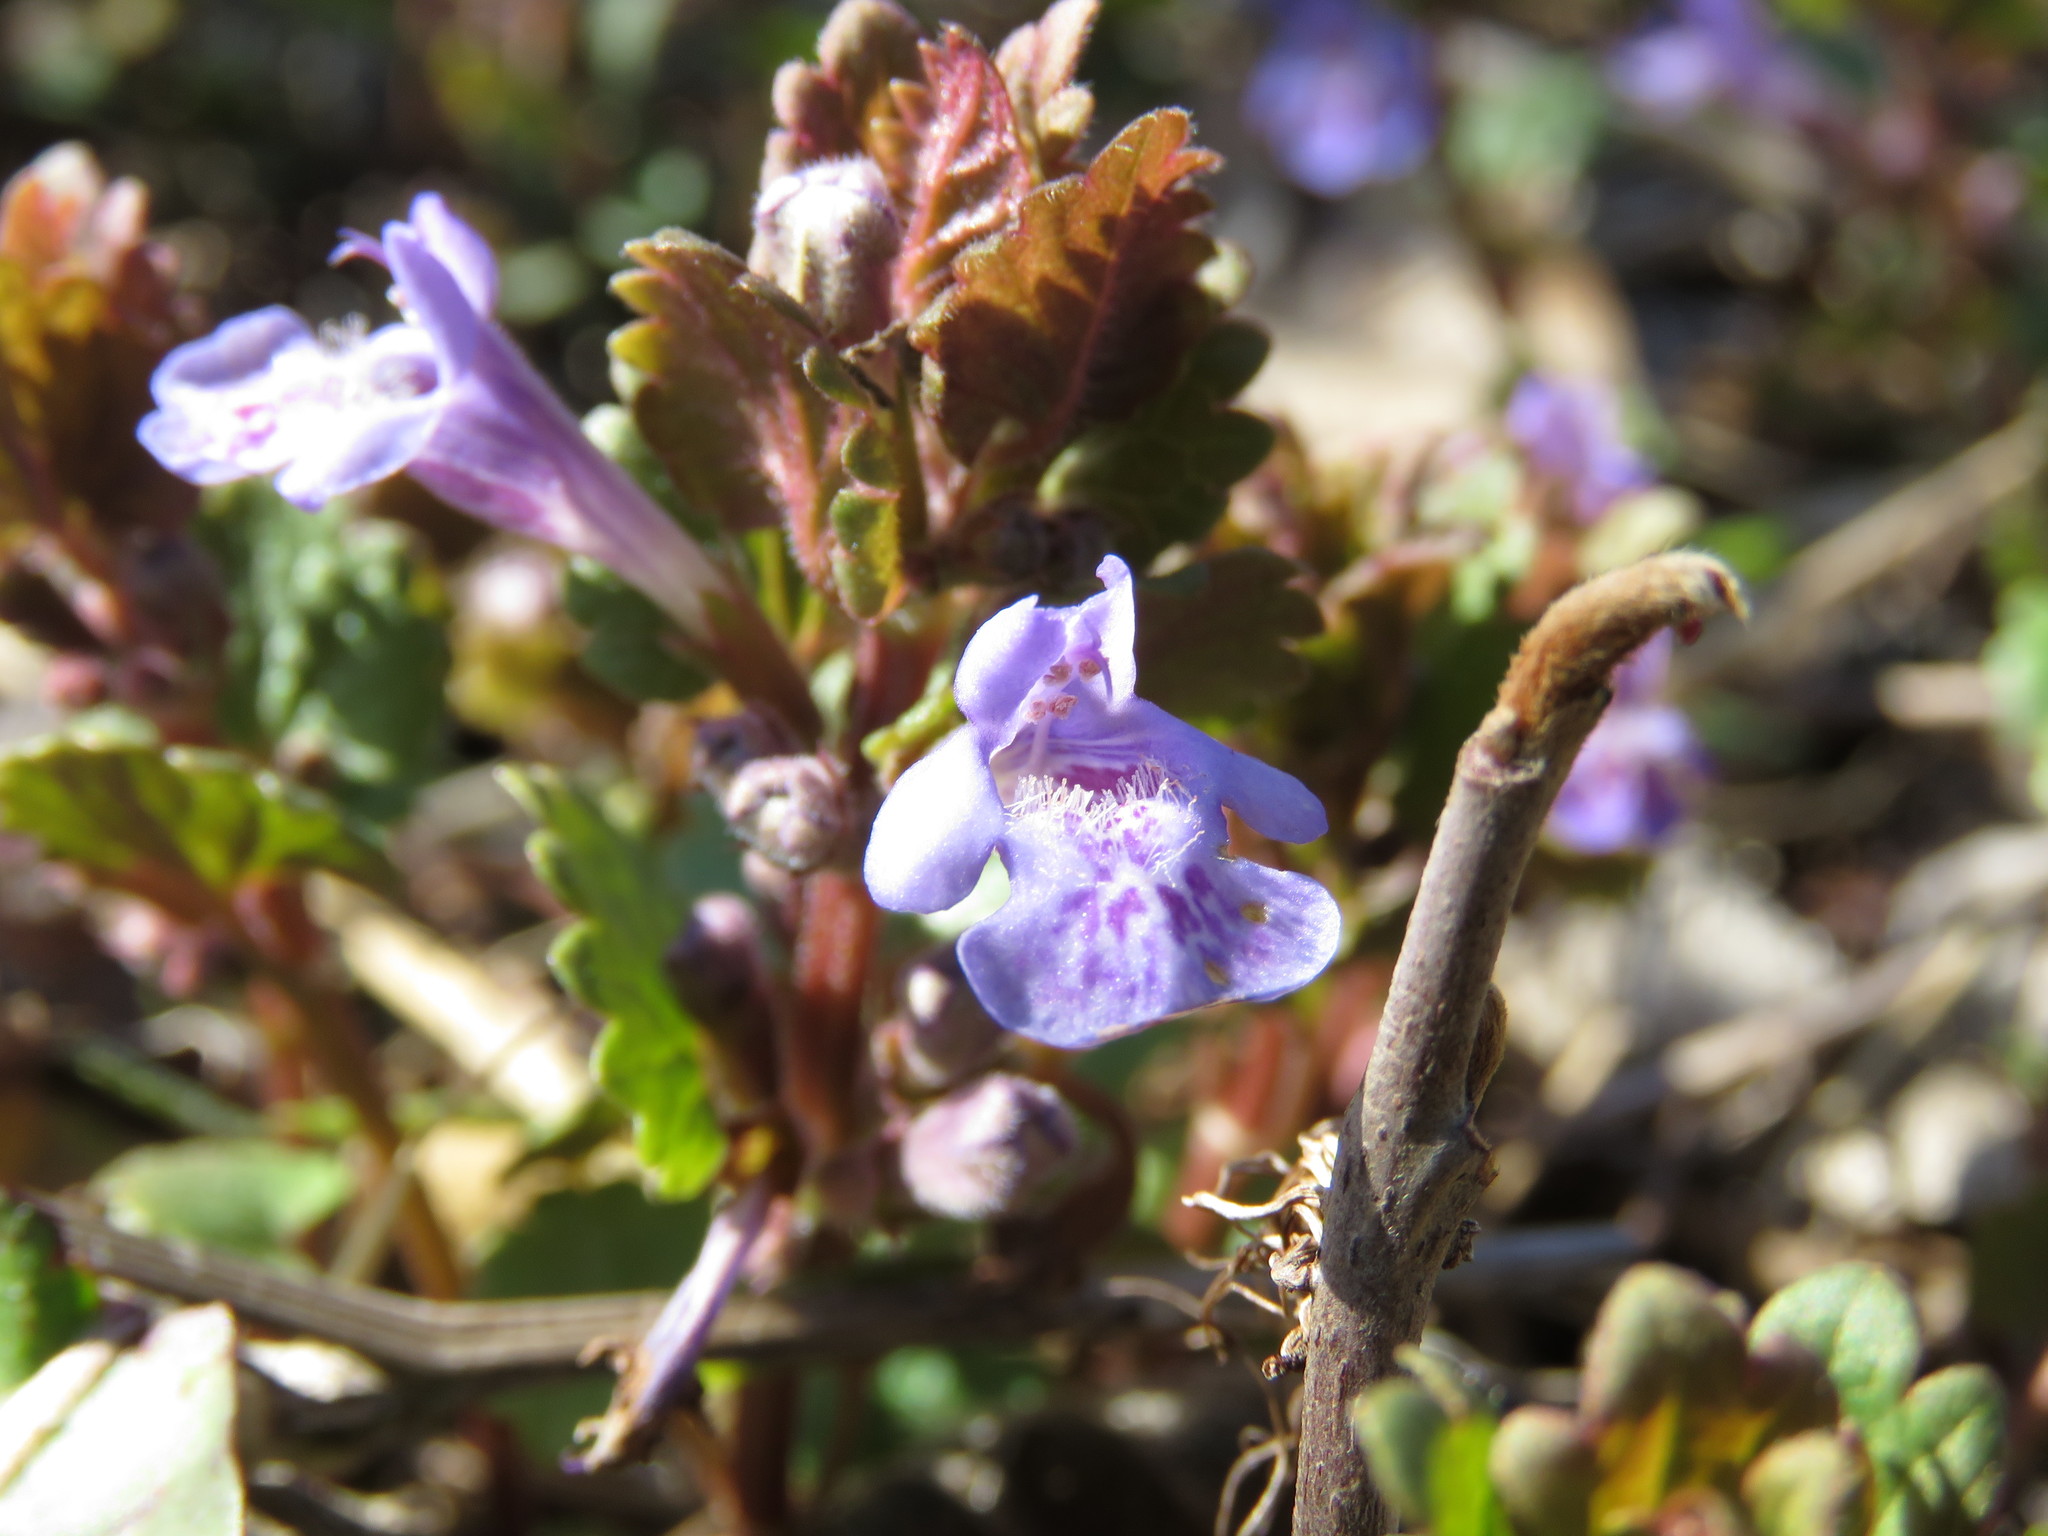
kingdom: Plantae
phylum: Tracheophyta
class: Magnoliopsida
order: Lamiales
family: Lamiaceae
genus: Glechoma
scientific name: Glechoma hederacea
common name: Ground ivy
